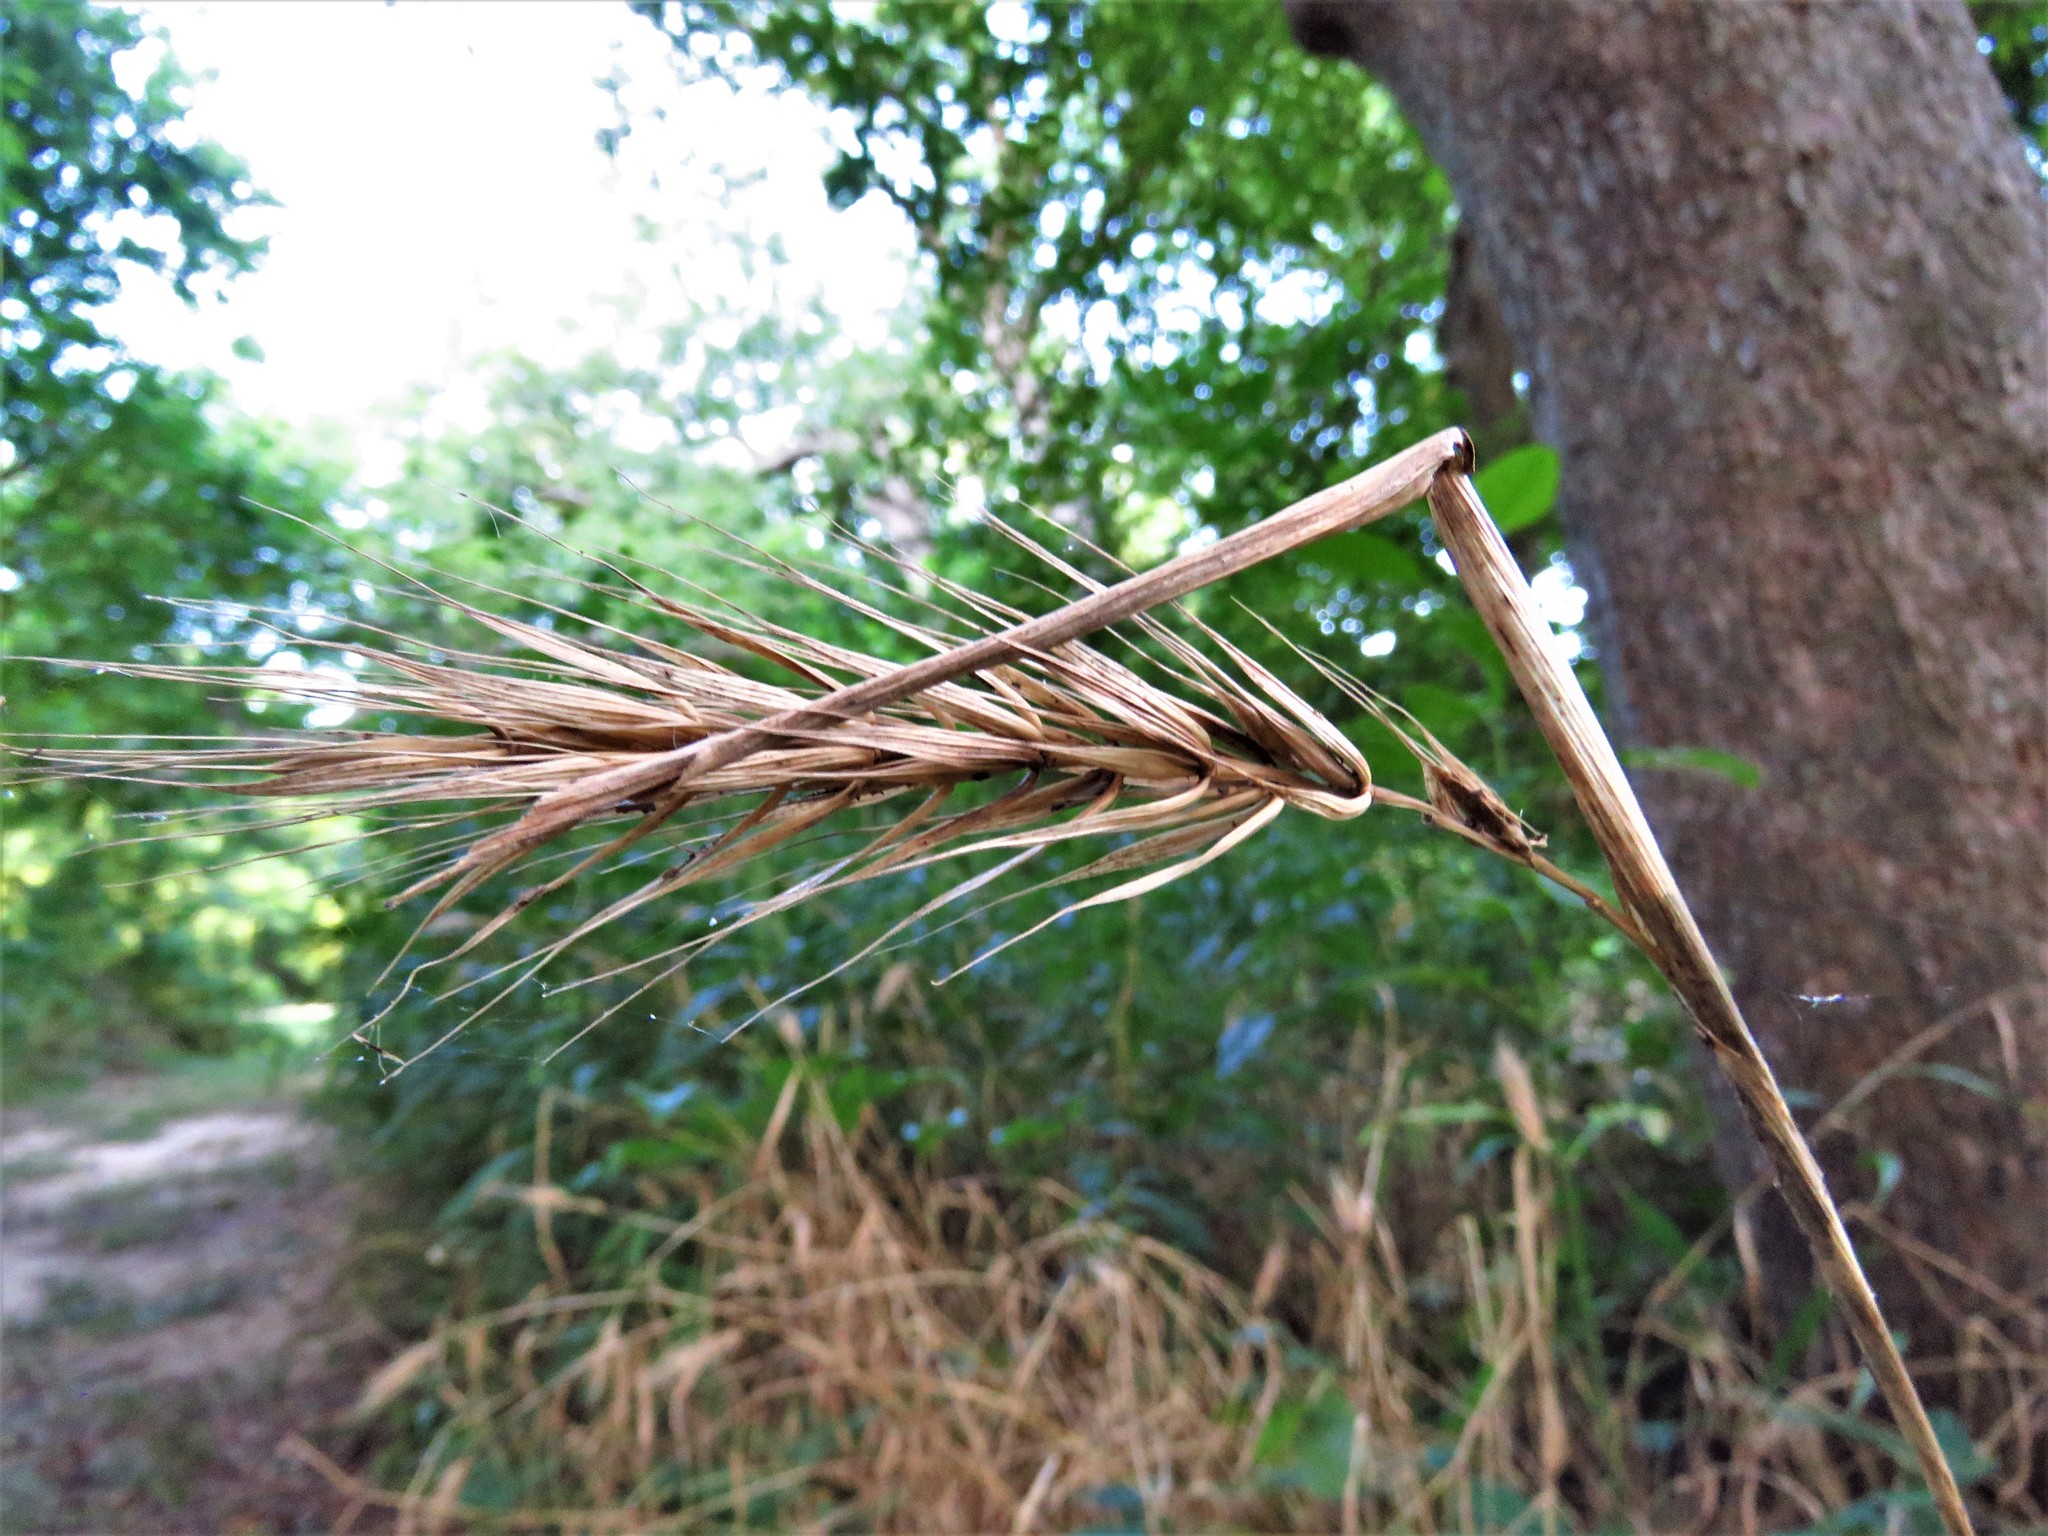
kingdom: Plantae
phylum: Tracheophyta
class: Liliopsida
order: Poales
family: Poaceae
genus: Elymus
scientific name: Elymus macgregorii
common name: Early wild rye
